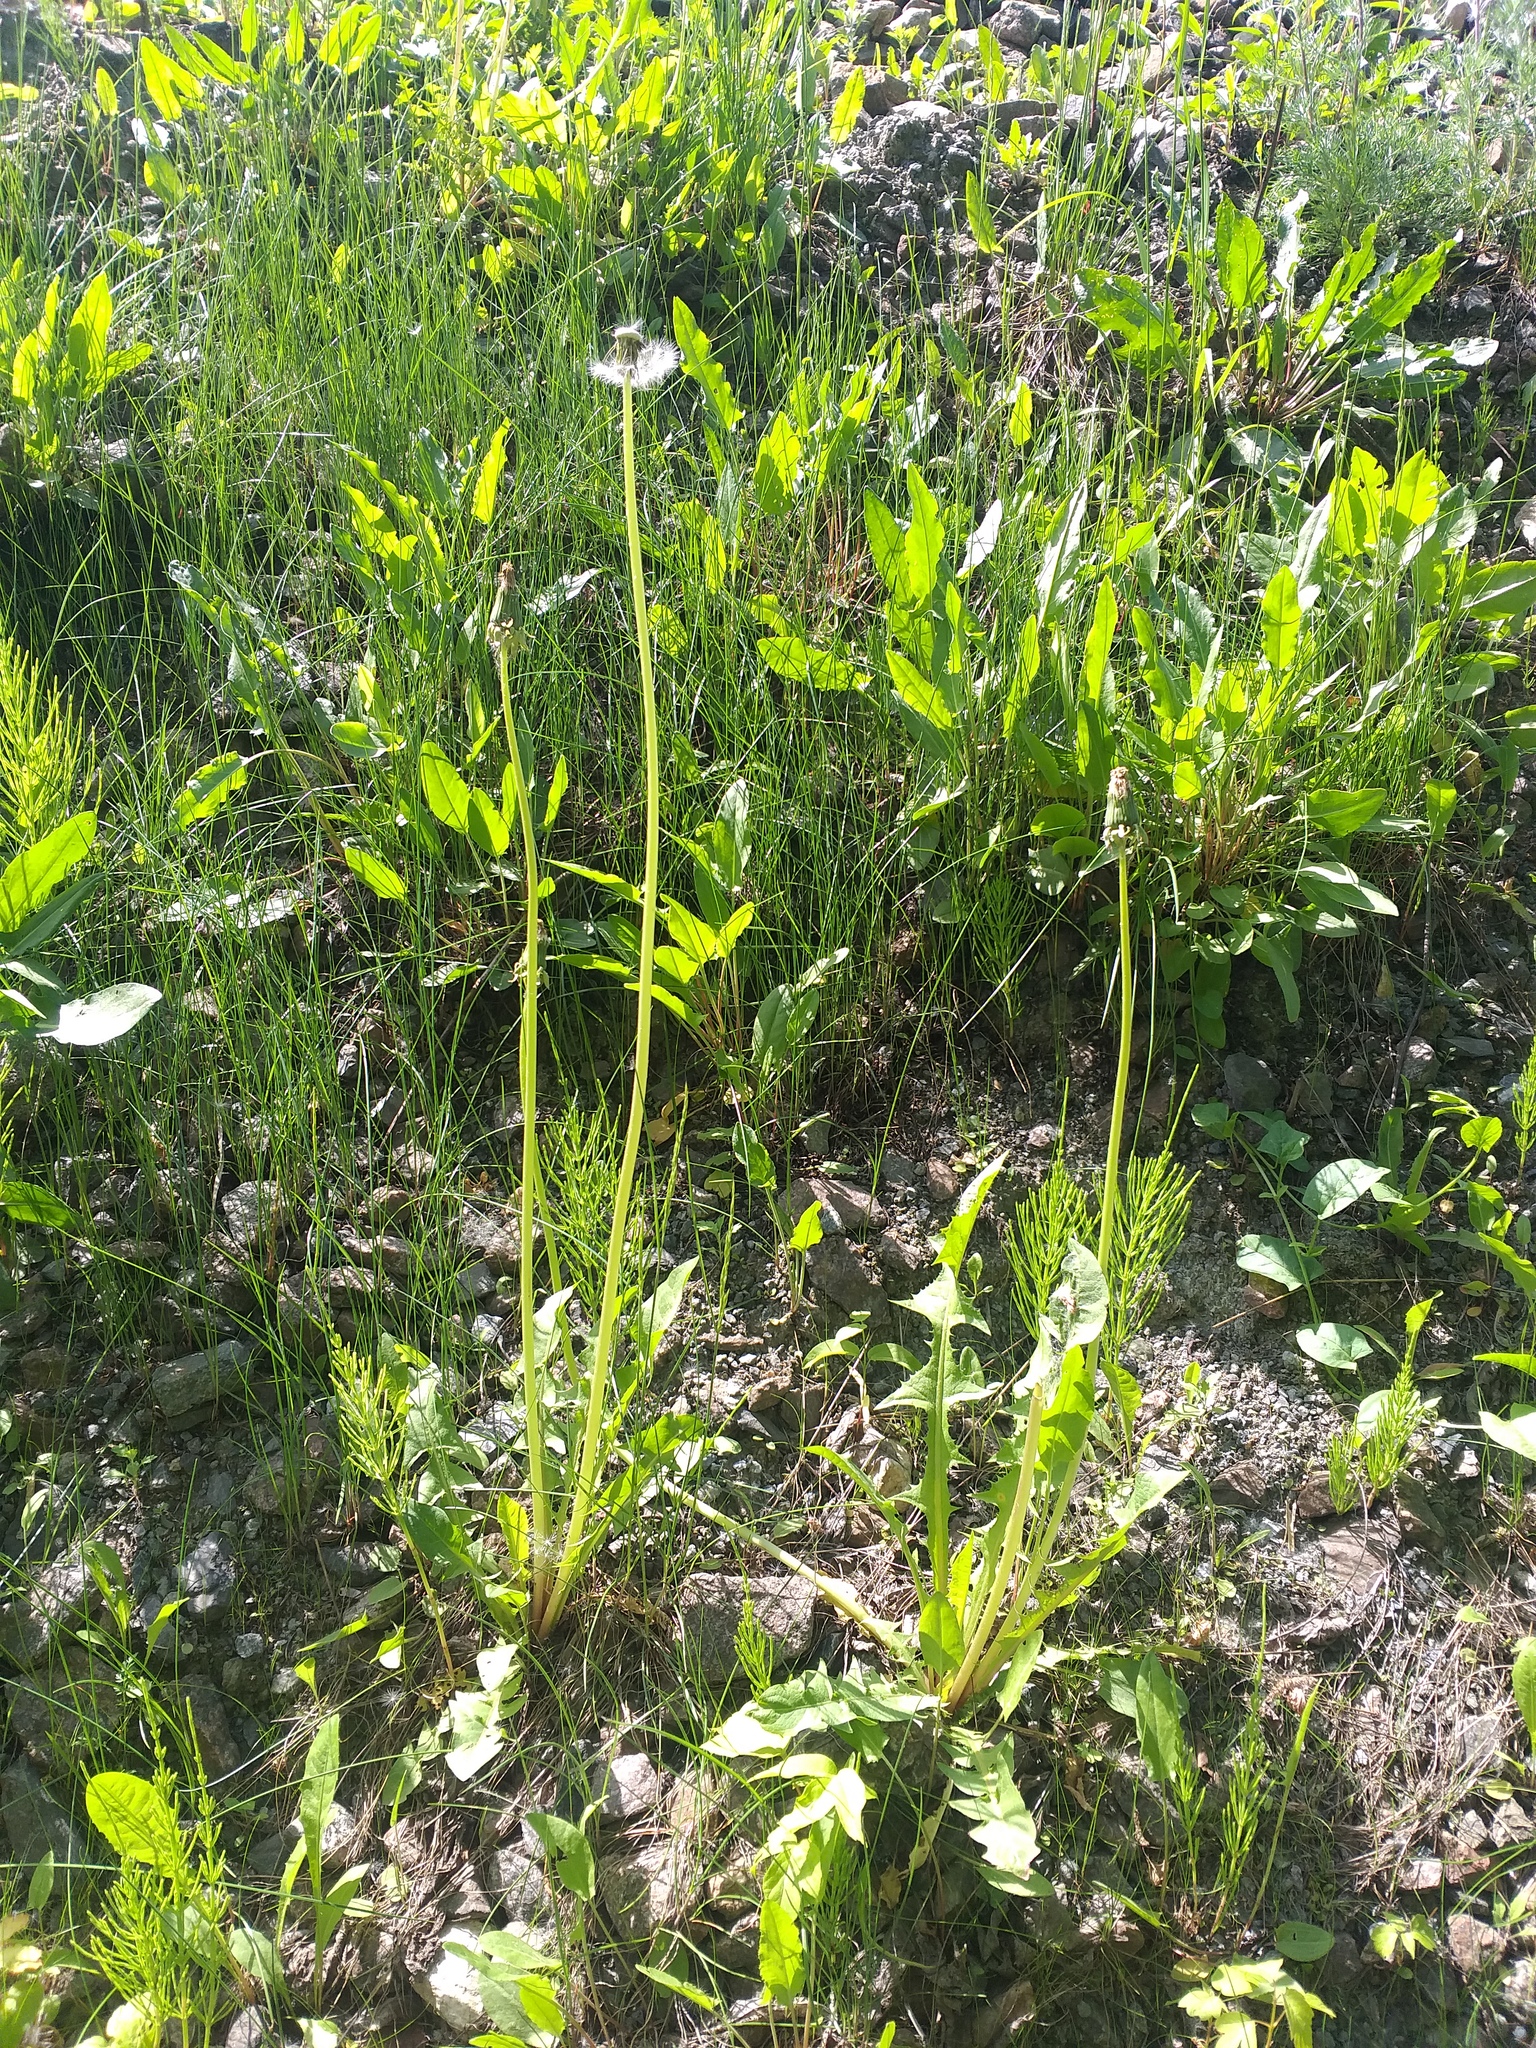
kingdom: Plantae
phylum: Tracheophyta
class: Magnoliopsida
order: Asterales
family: Asteraceae
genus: Taraxacum
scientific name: Taraxacum officinale
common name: Common dandelion
